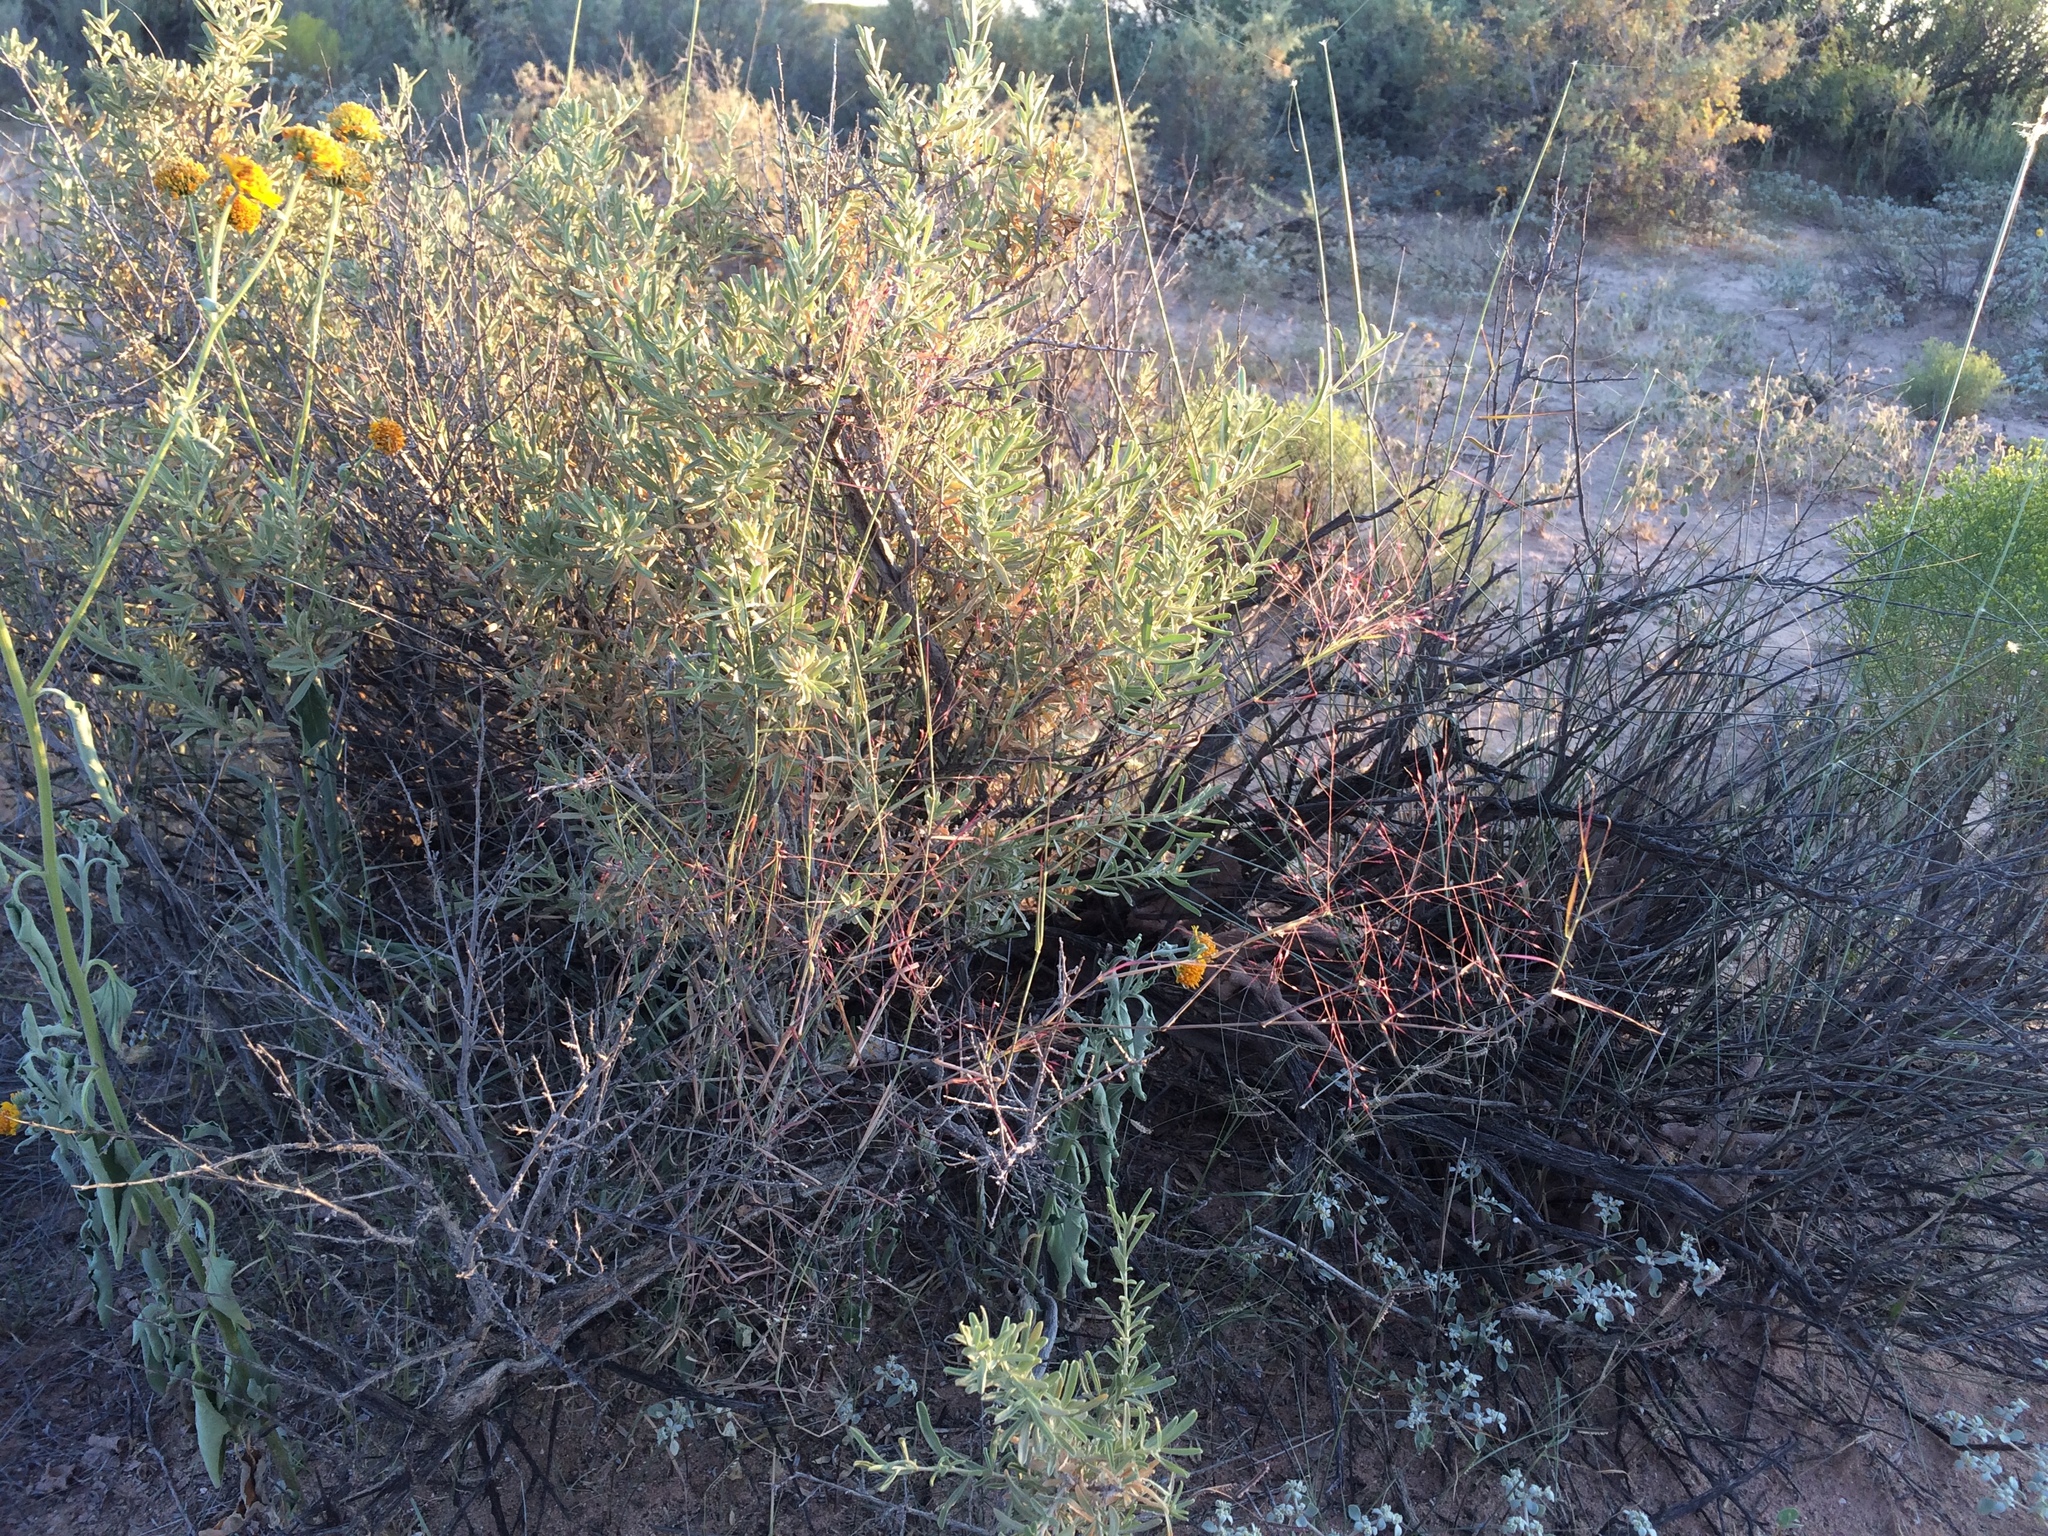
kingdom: Plantae
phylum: Tracheophyta
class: Liliopsida
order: Poales
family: Poaceae
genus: Muhlenbergia
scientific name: Muhlenbergia porteri
